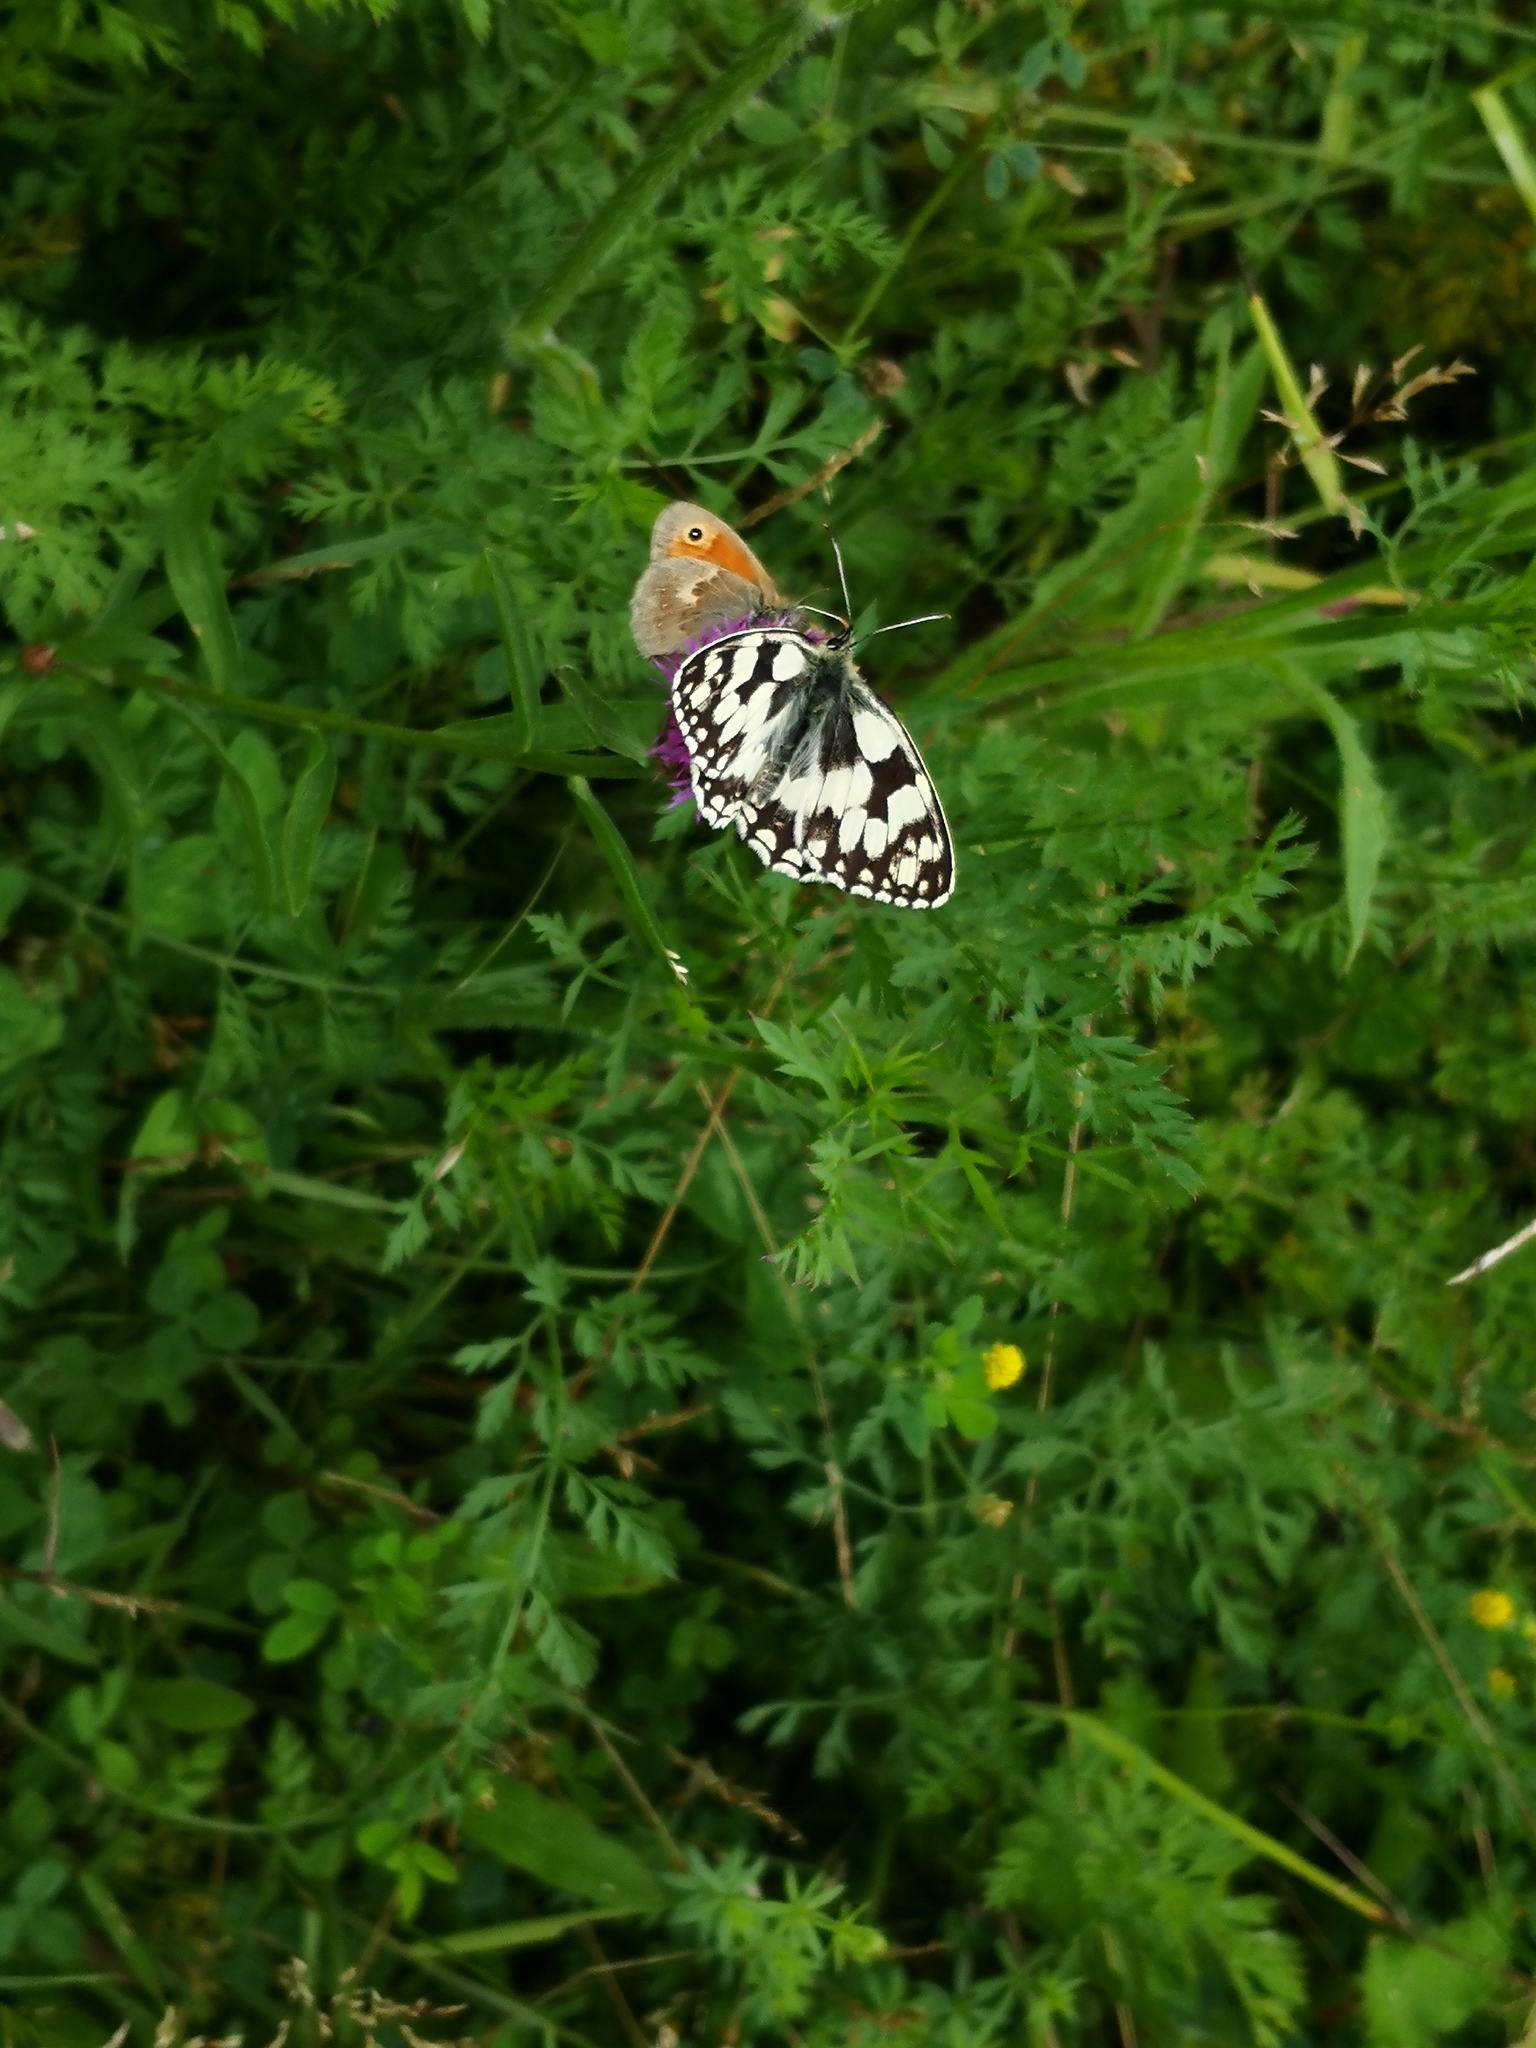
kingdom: Animalia
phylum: Arthropoda
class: Insecta
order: Lepidoptera
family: Nymphalidae
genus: Coenonympha
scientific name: Coenonympha pamphilus
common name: Small heath
